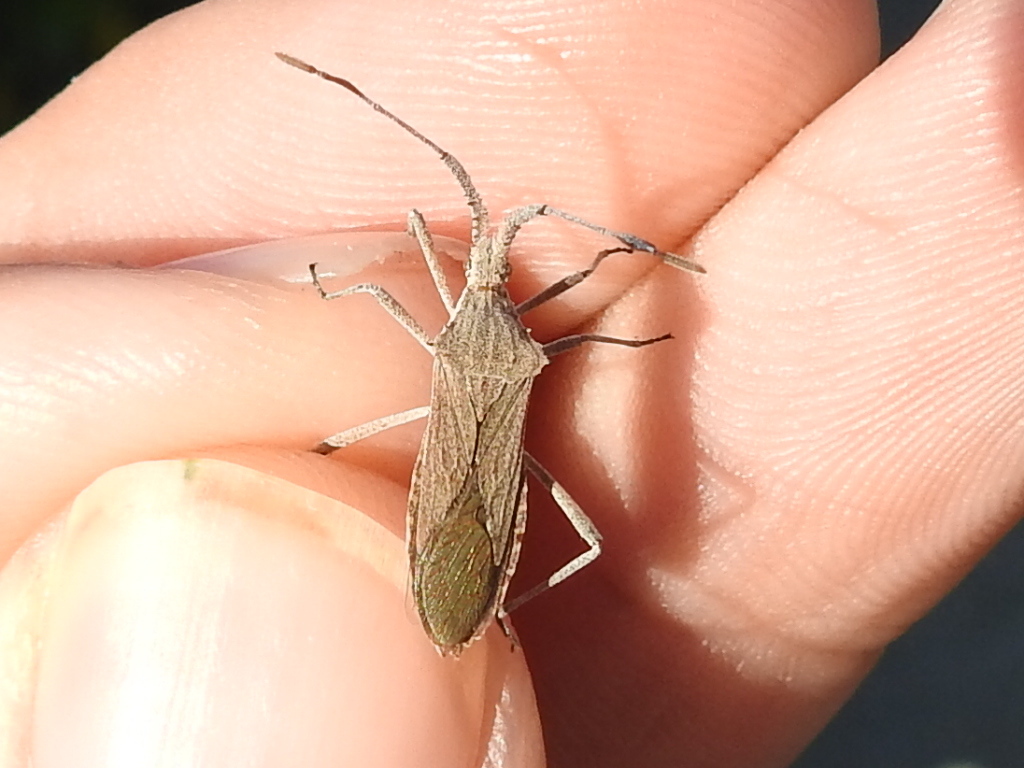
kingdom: Animalia
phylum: Arthropoda
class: Insecta
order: Hemiptera
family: Coreidae
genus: Chariesterus
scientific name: Chariesterus antennator
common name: Flat horned coreid
